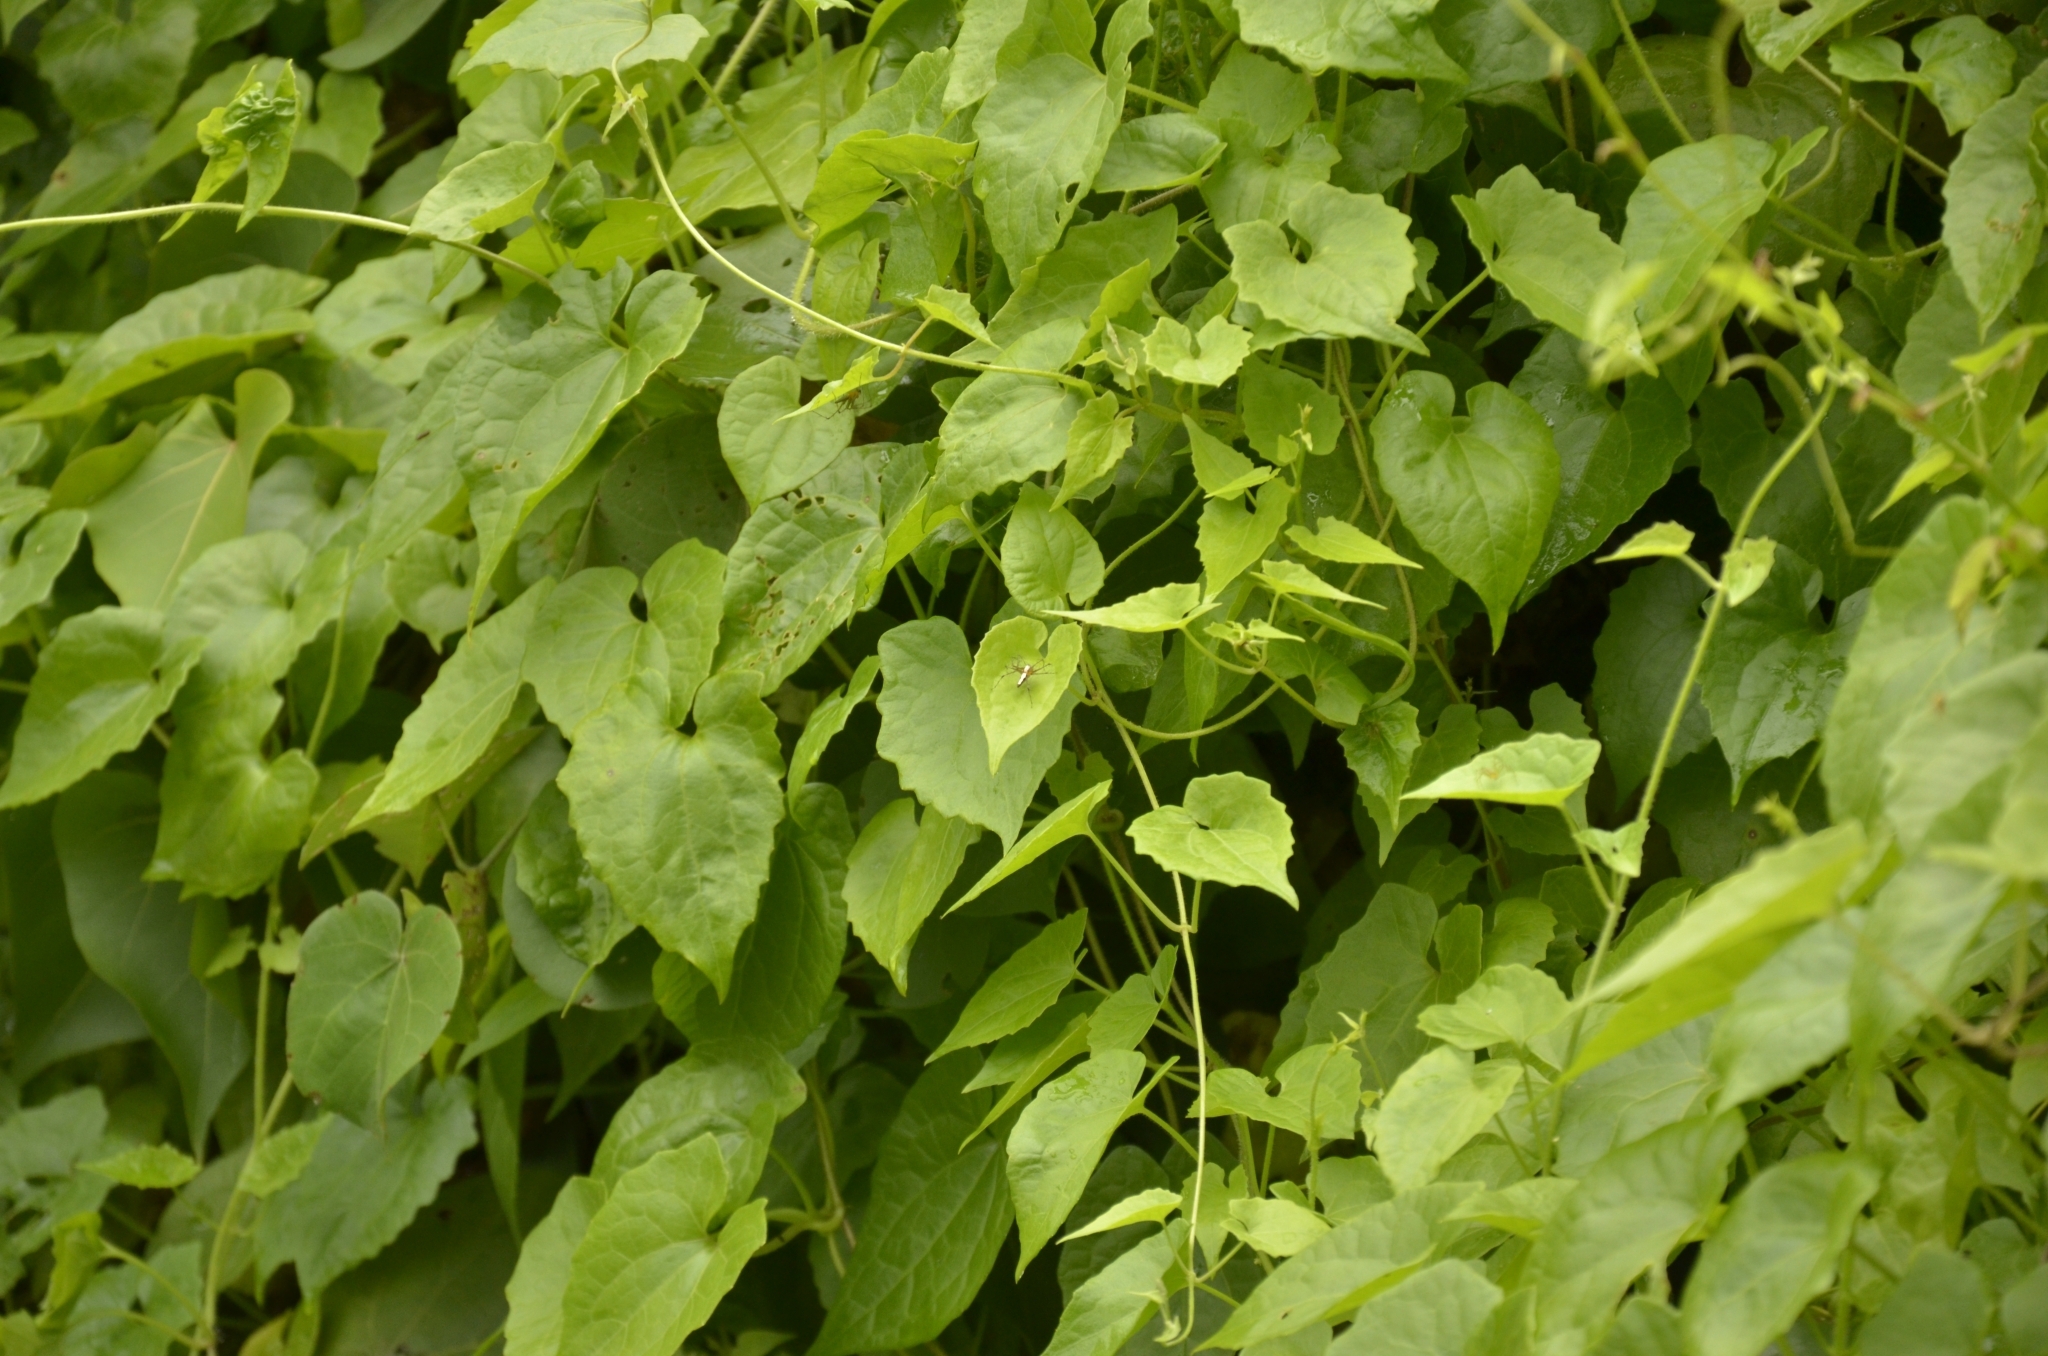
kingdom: Plantae
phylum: Tracheophyta
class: Magnoliopsida
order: Asterales
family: Asteraceae
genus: Mikania
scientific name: Mikania micrantha
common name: Mile-a-minute
